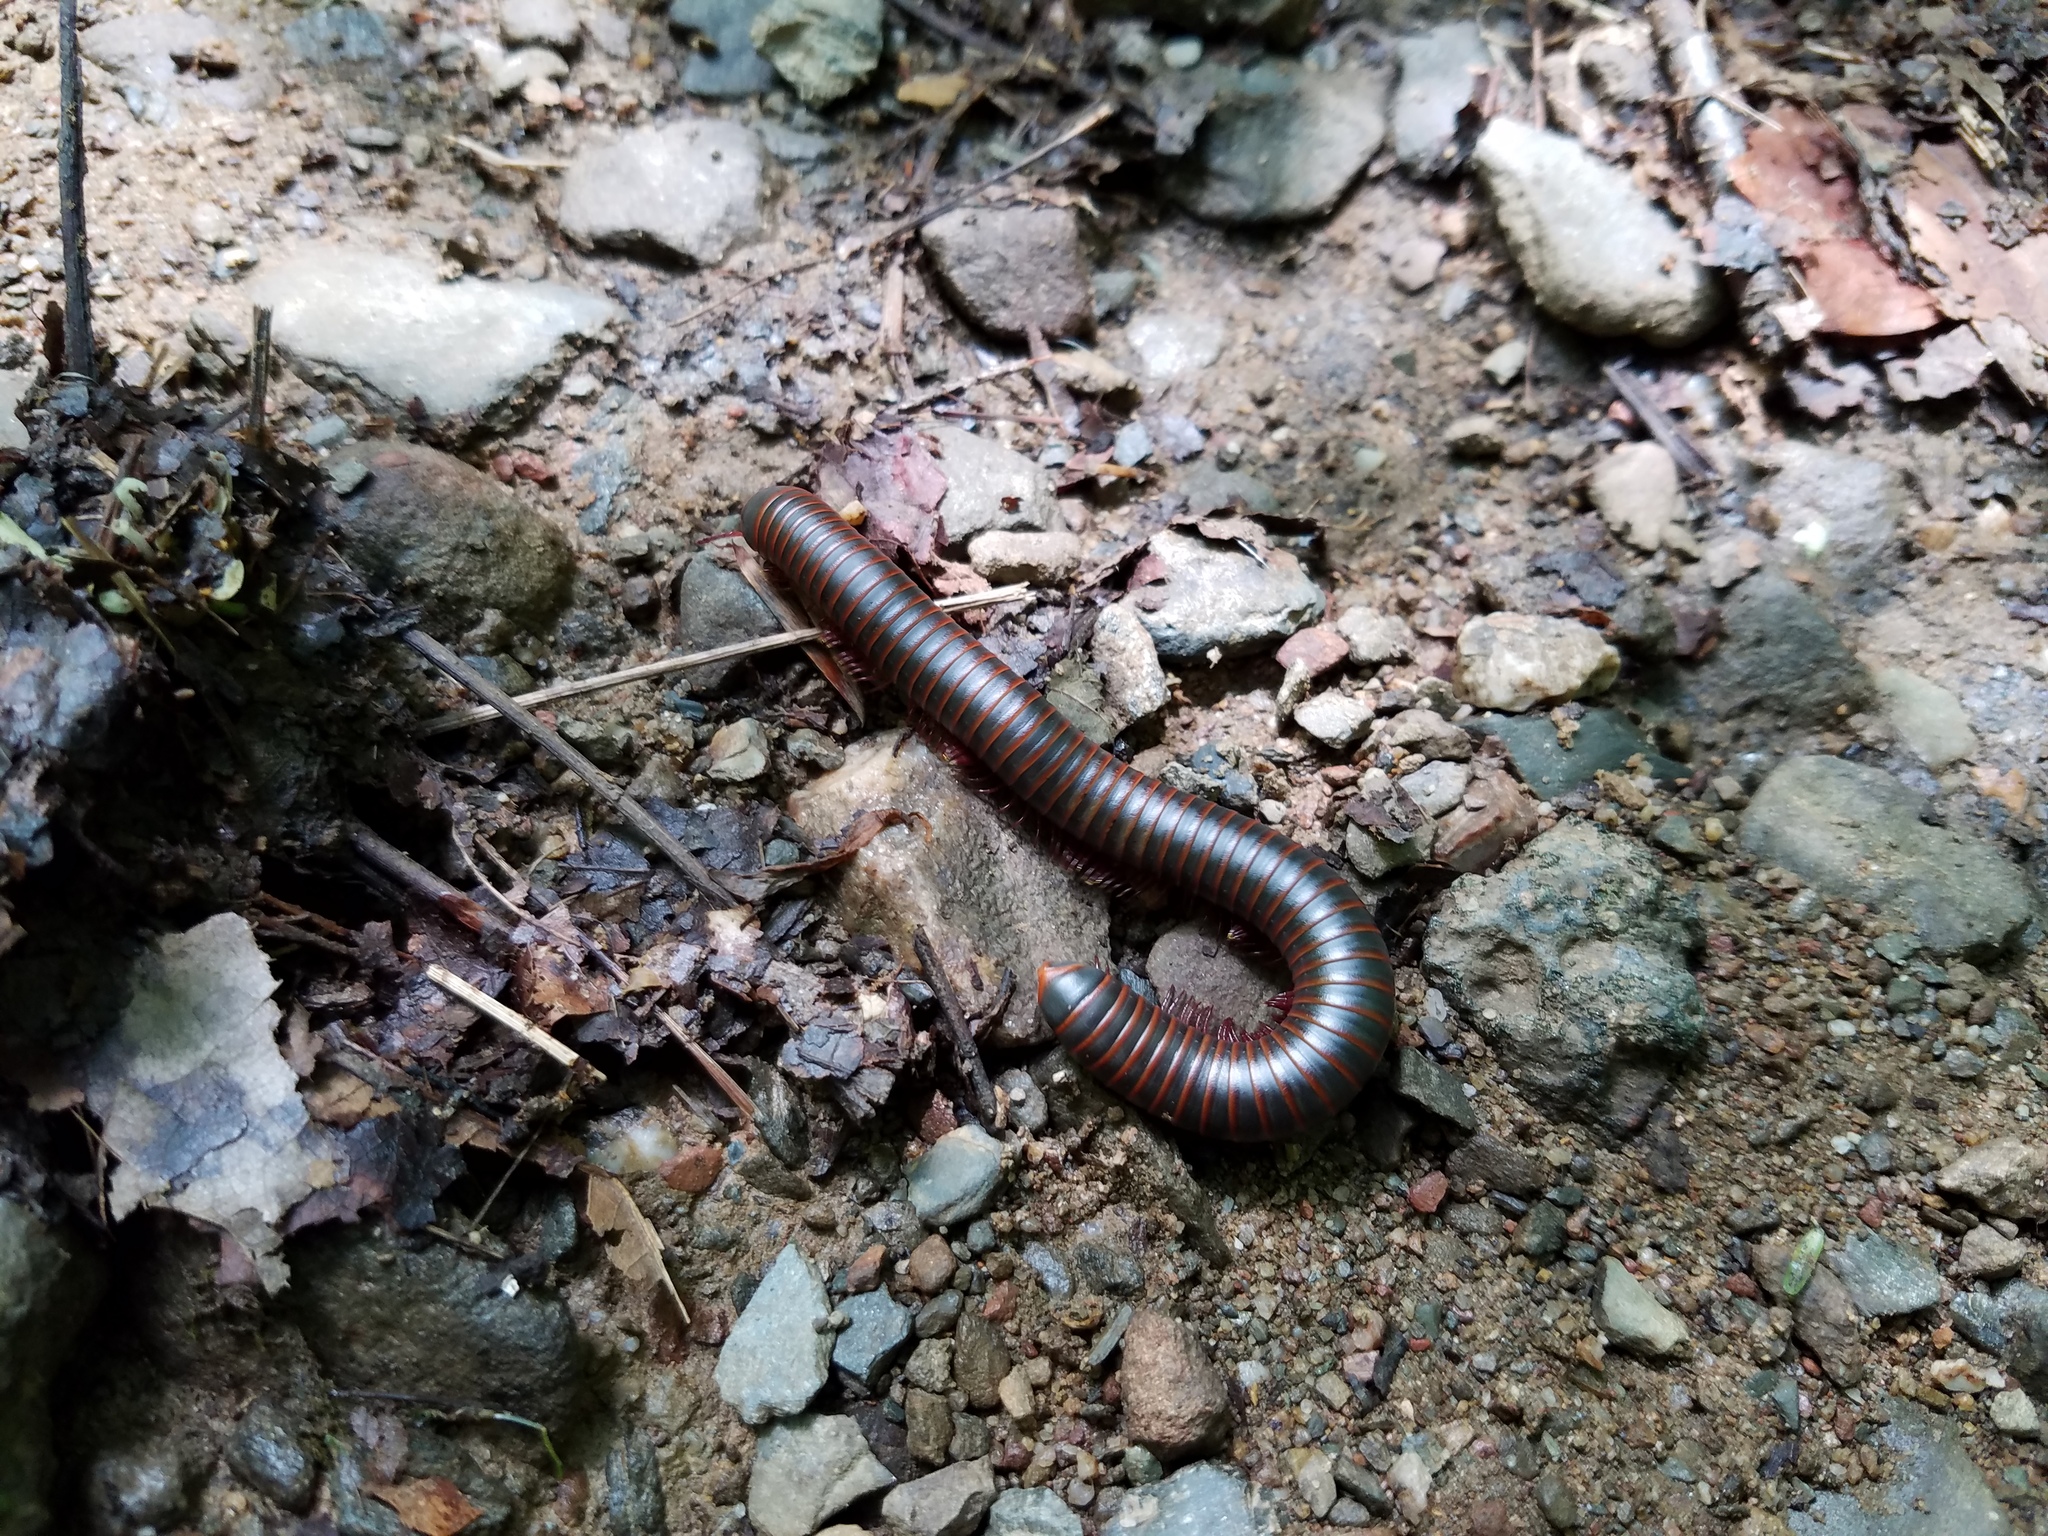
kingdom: Animalia
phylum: Arthropoda
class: Diplopoda
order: Spirobolida
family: Spirobolidae
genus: Narceus
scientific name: Narceus
